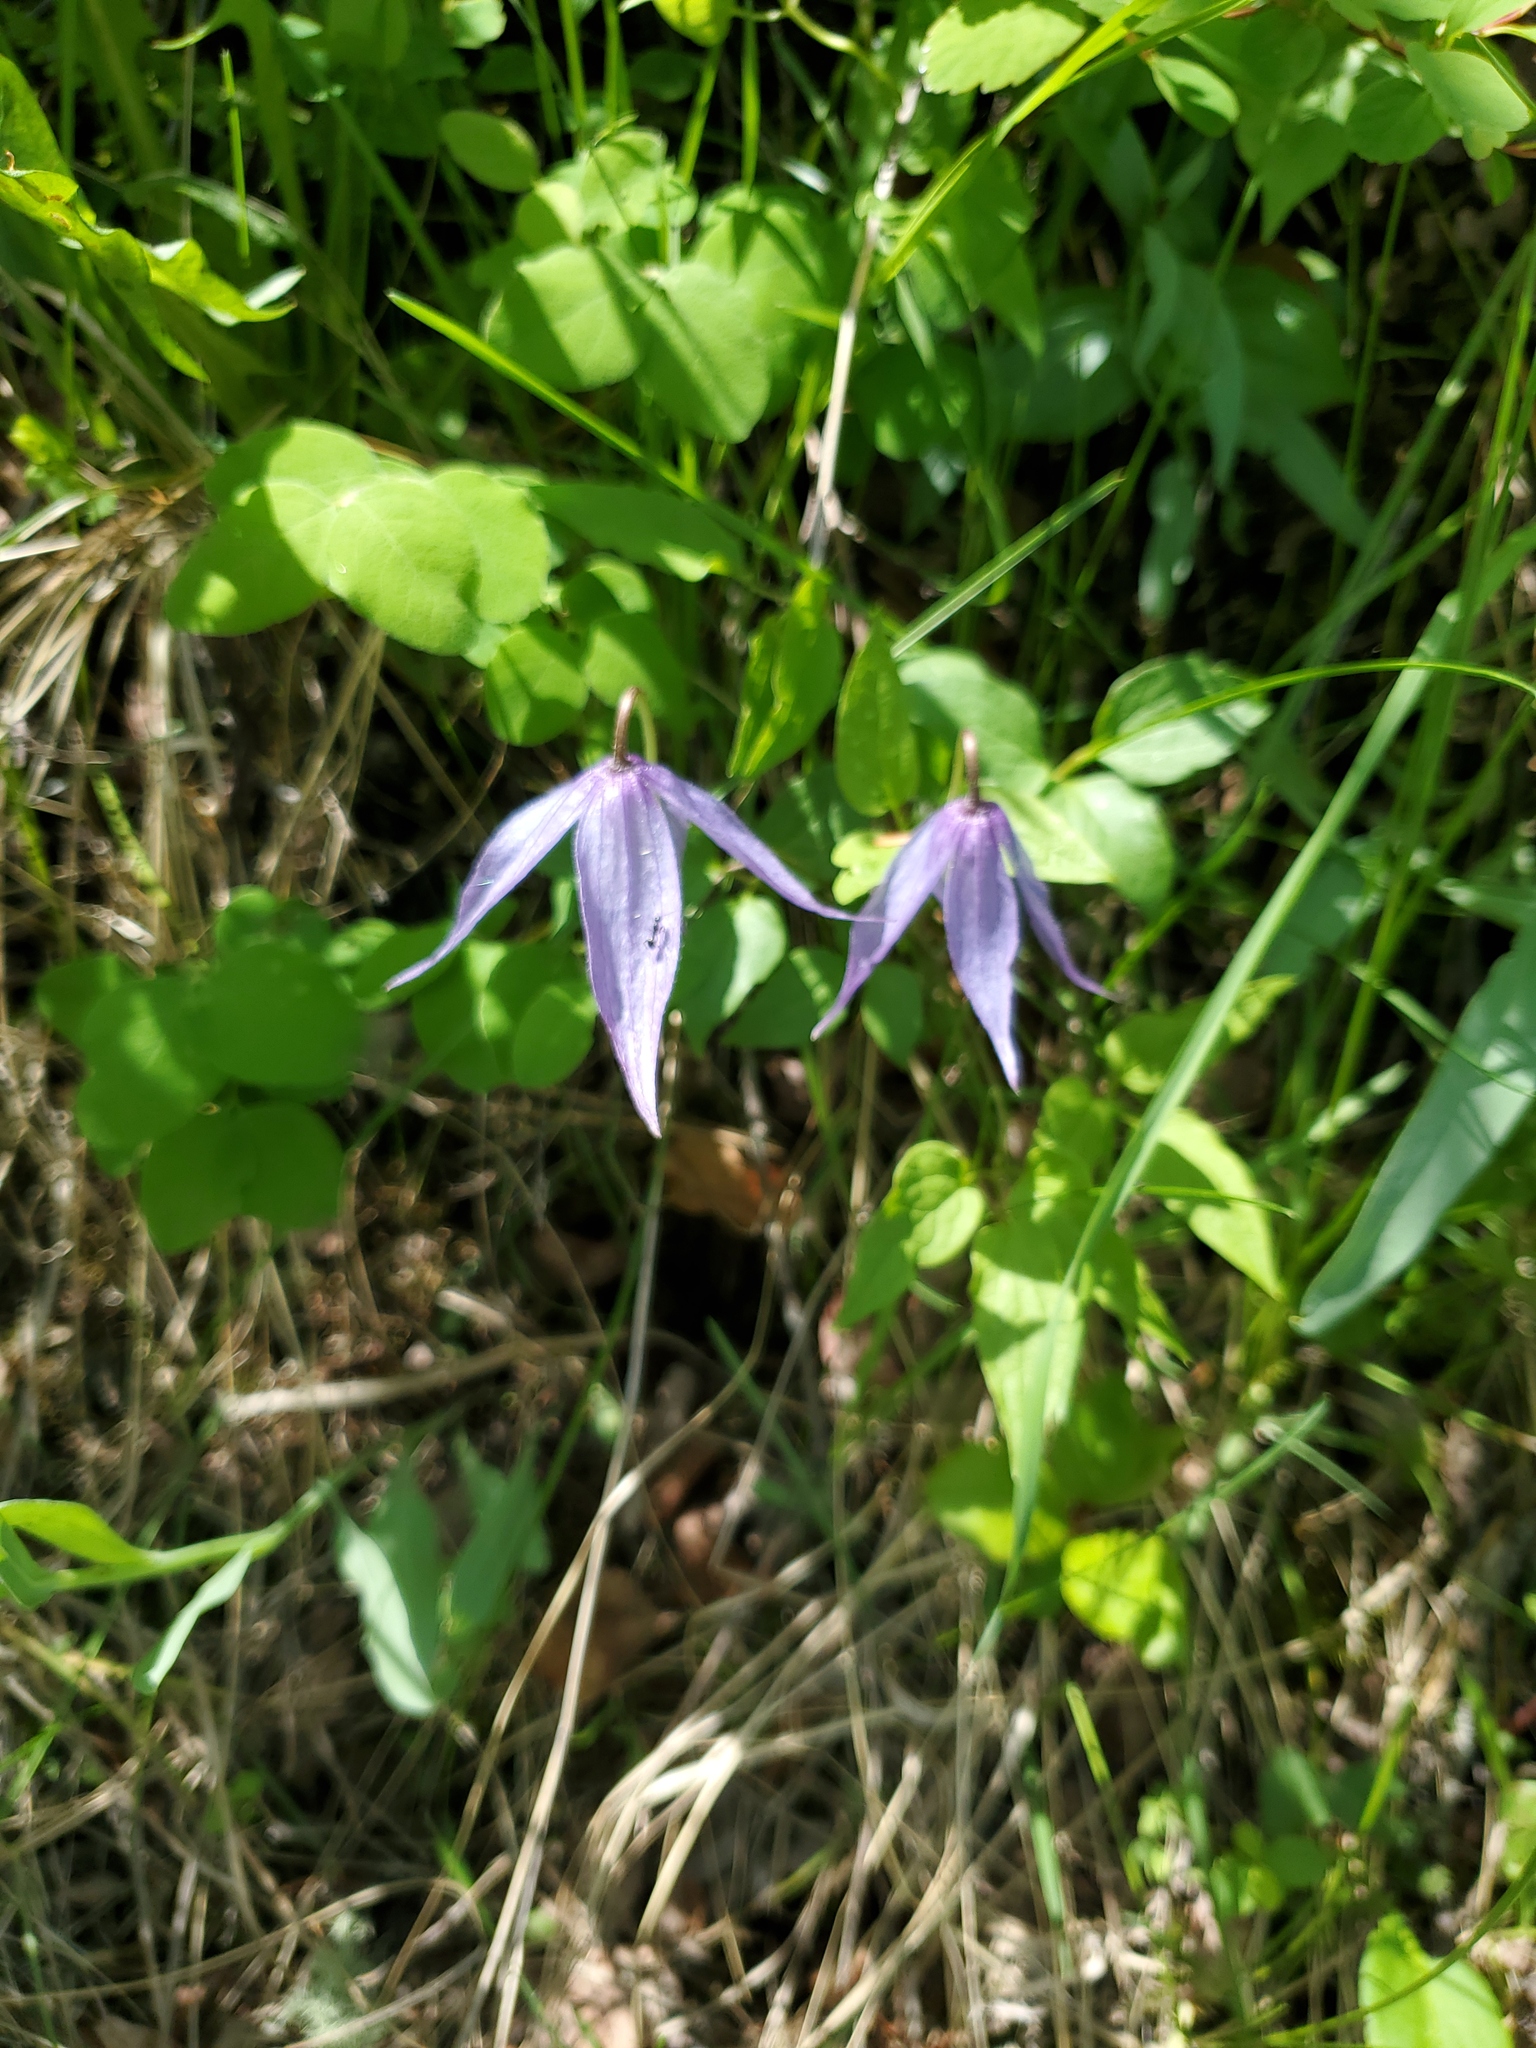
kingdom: Plantae
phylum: Tracheophyta
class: Magnoliopsida
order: Ranunculales
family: Ranunculaceae
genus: Clematis
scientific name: Clematis occidentalis
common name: Purple clematis
